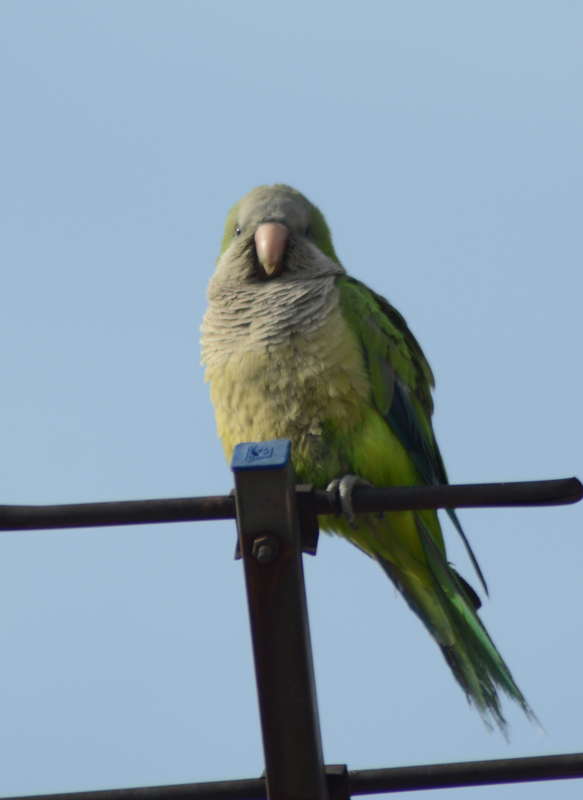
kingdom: Animalia
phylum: Chordata
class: Aves
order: Psittaciformes
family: Psittacidae
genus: Myiopsitta
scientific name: Myiopsitta monachus
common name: Monk parakeet
